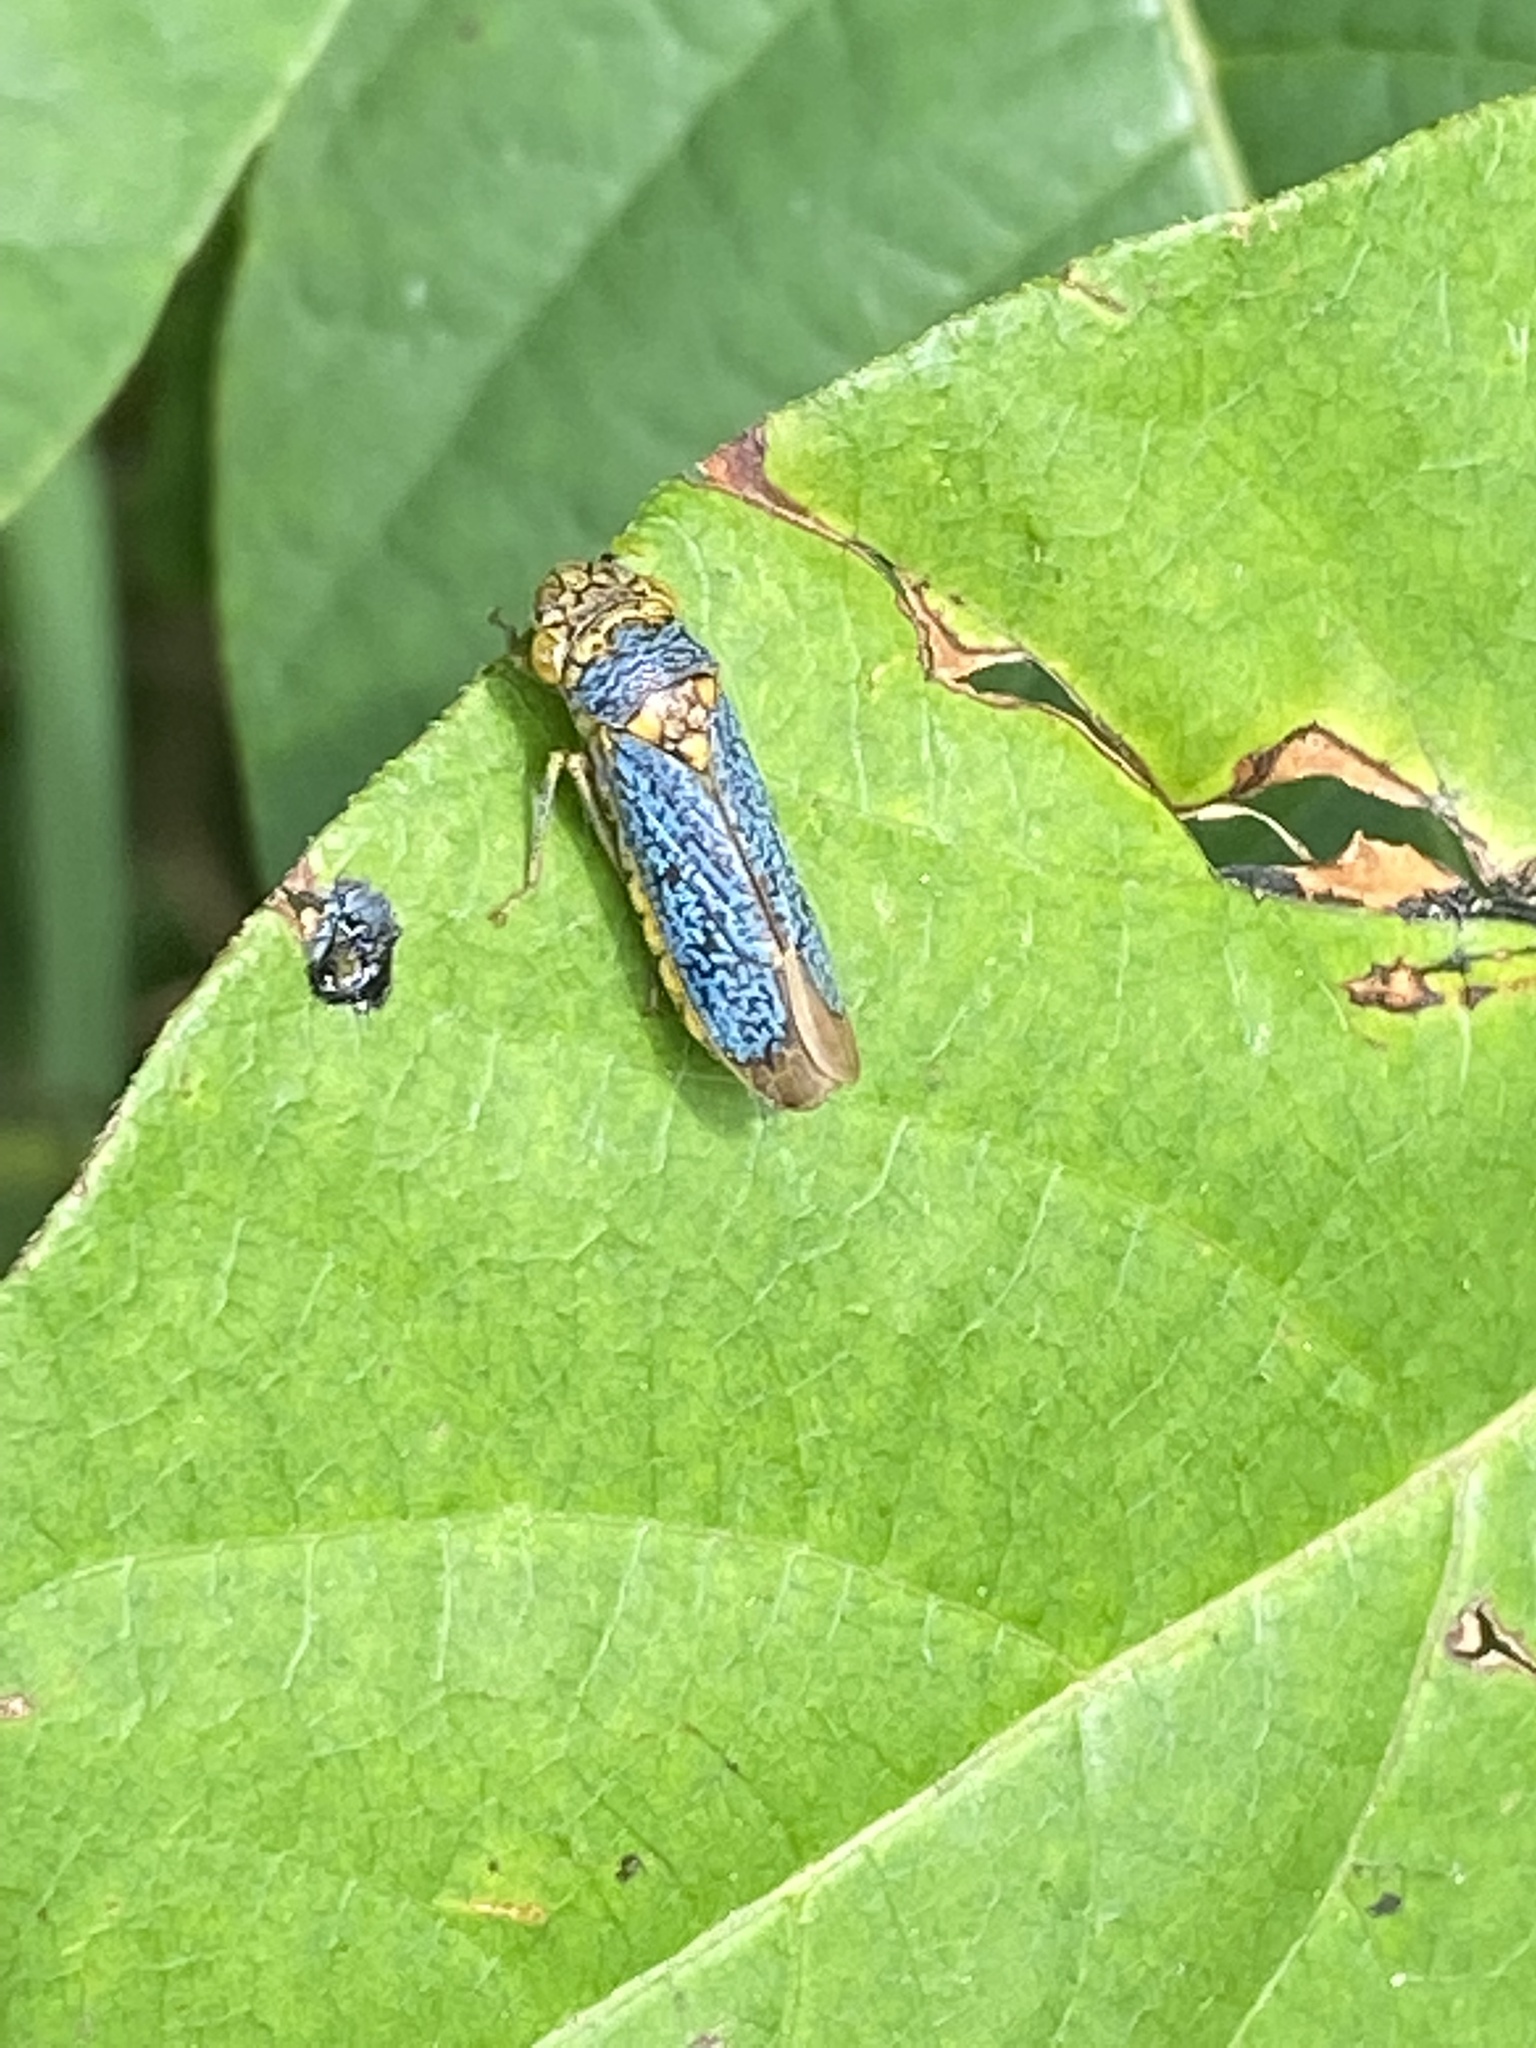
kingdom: Animalia
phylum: Arthropoda
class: Insecta
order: Hemiptera
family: Cicadellidae
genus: Oncometopia
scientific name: Oncometopia orbona
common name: Broad-headed sharpshooter
